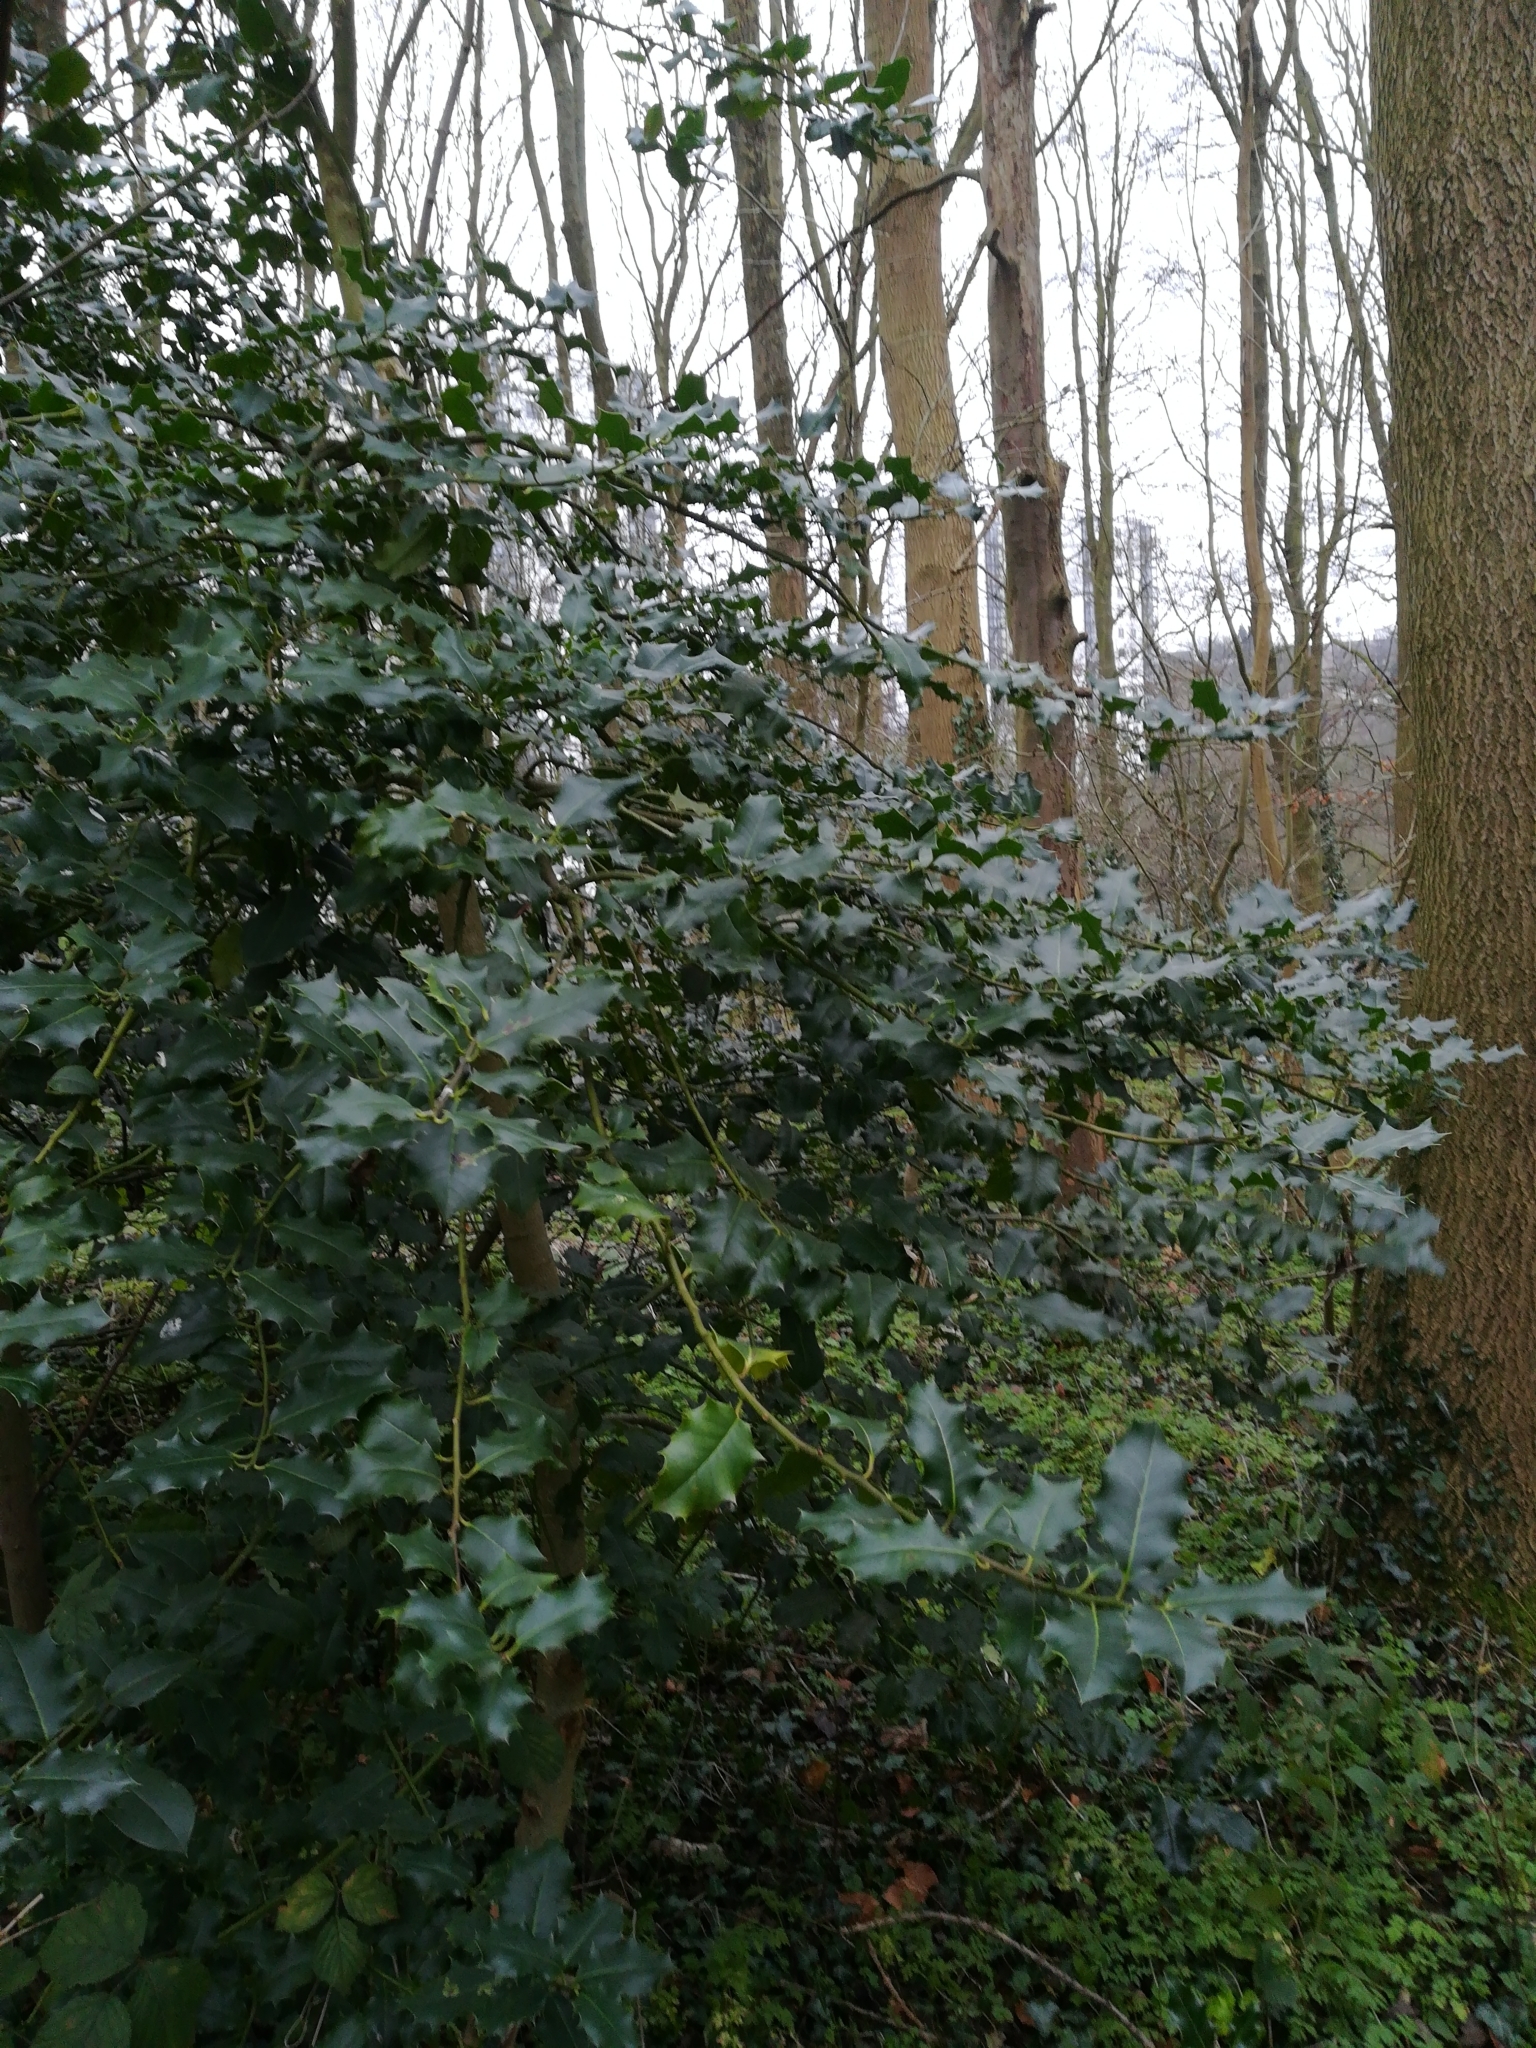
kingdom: Plantae
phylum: Tracheophyta
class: Magnoliopsida
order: Aquifoliales
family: Aquifoliaceae
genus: Ilex
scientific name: Ilex aquifolium
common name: English holly
